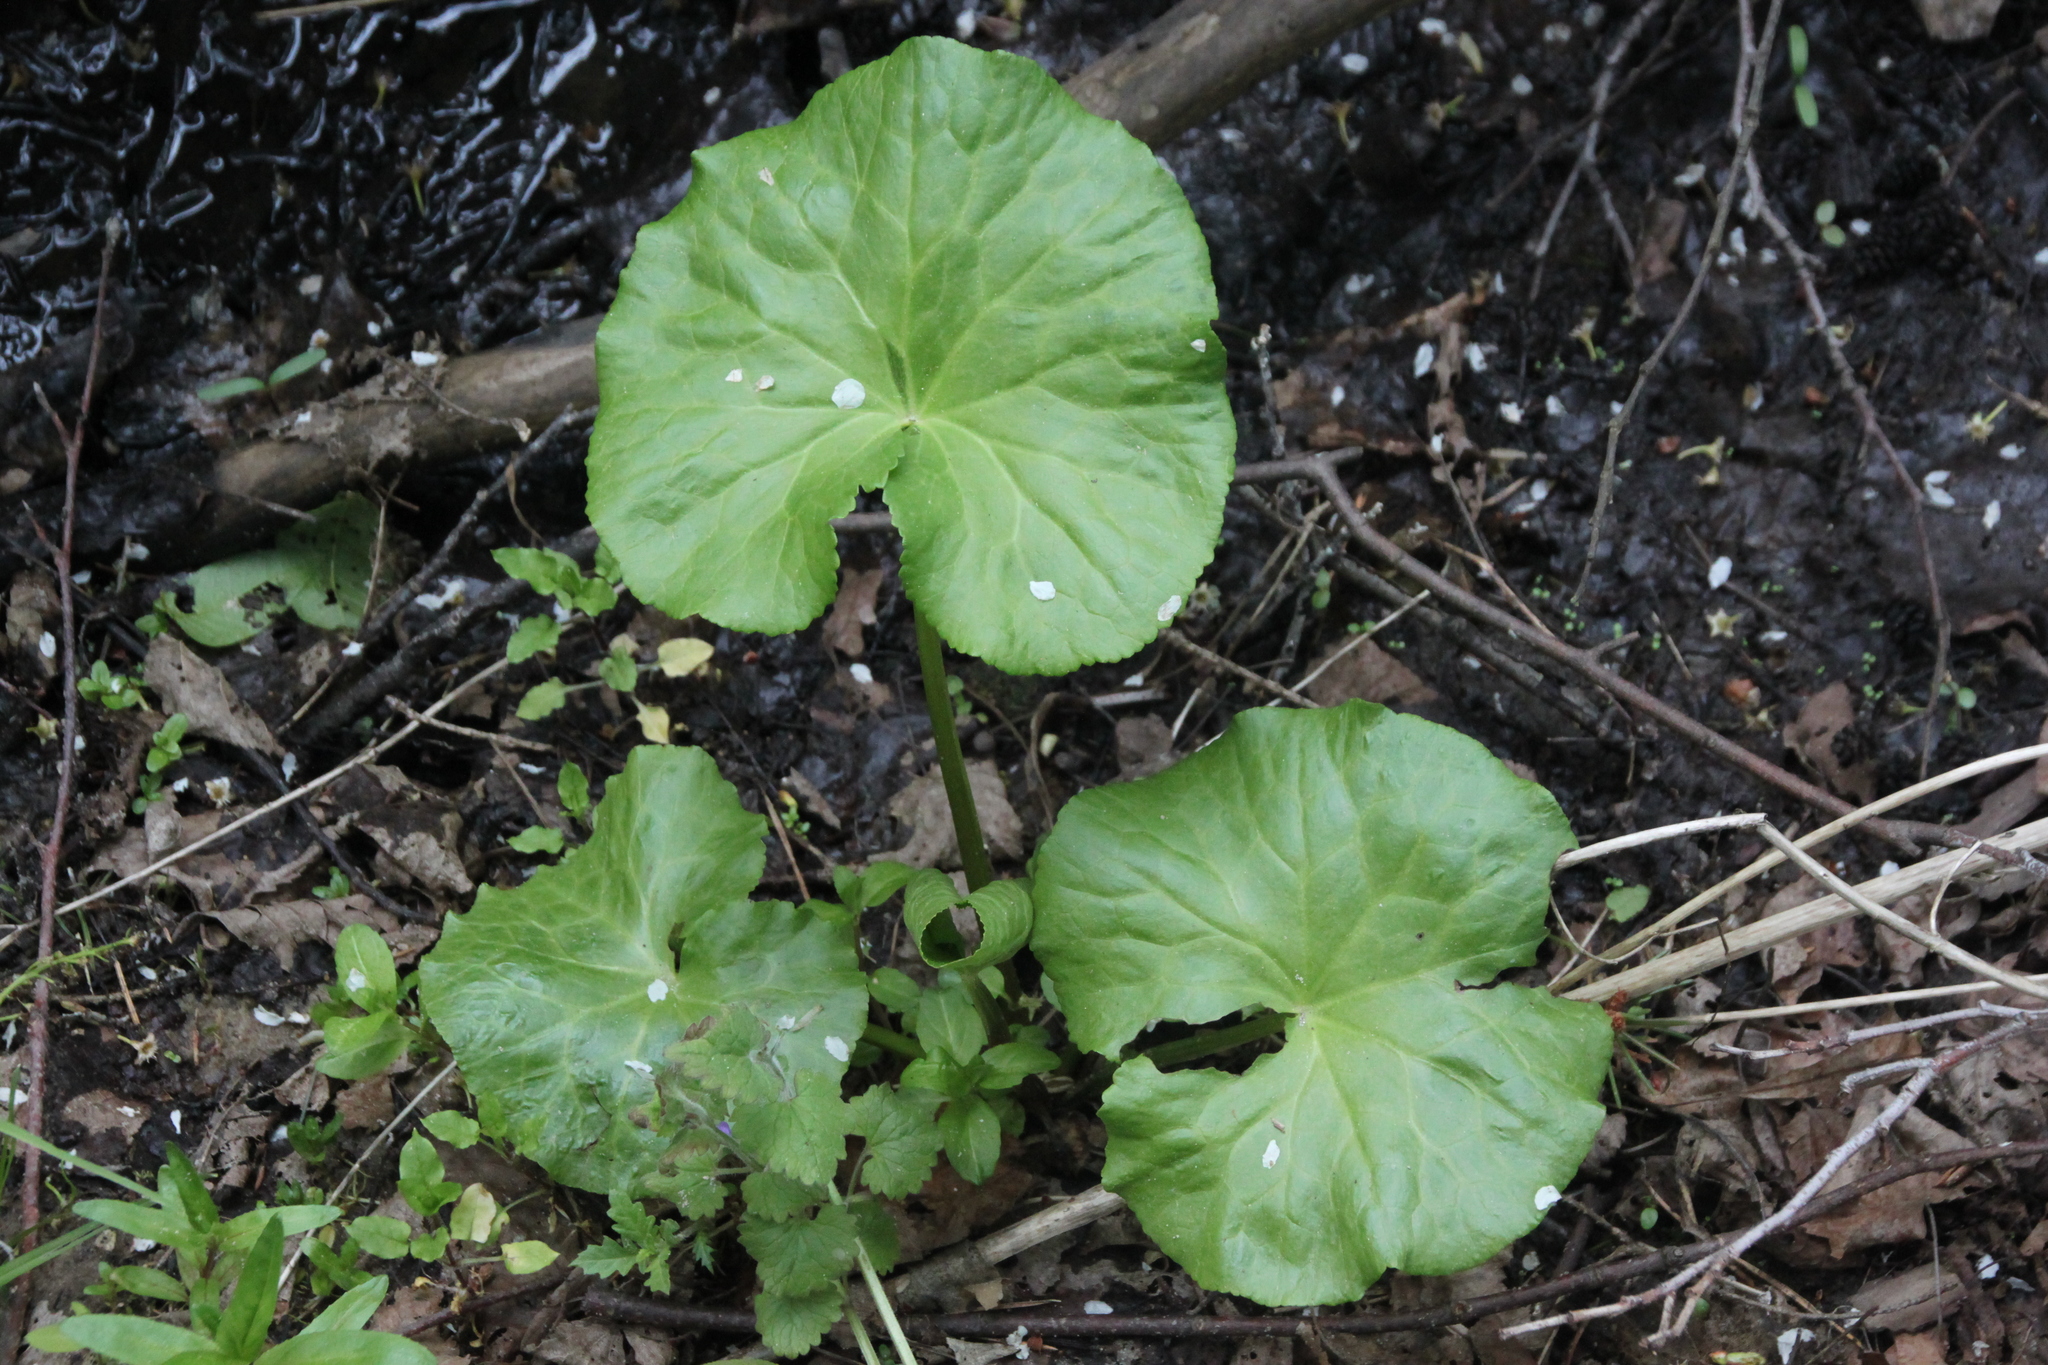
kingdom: Plantae
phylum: Tracheophyta
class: Magnoliopsida
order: Ranunculales
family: Ranunculaceae
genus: Caltha
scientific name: Caltha palustris
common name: Marsh marigold
